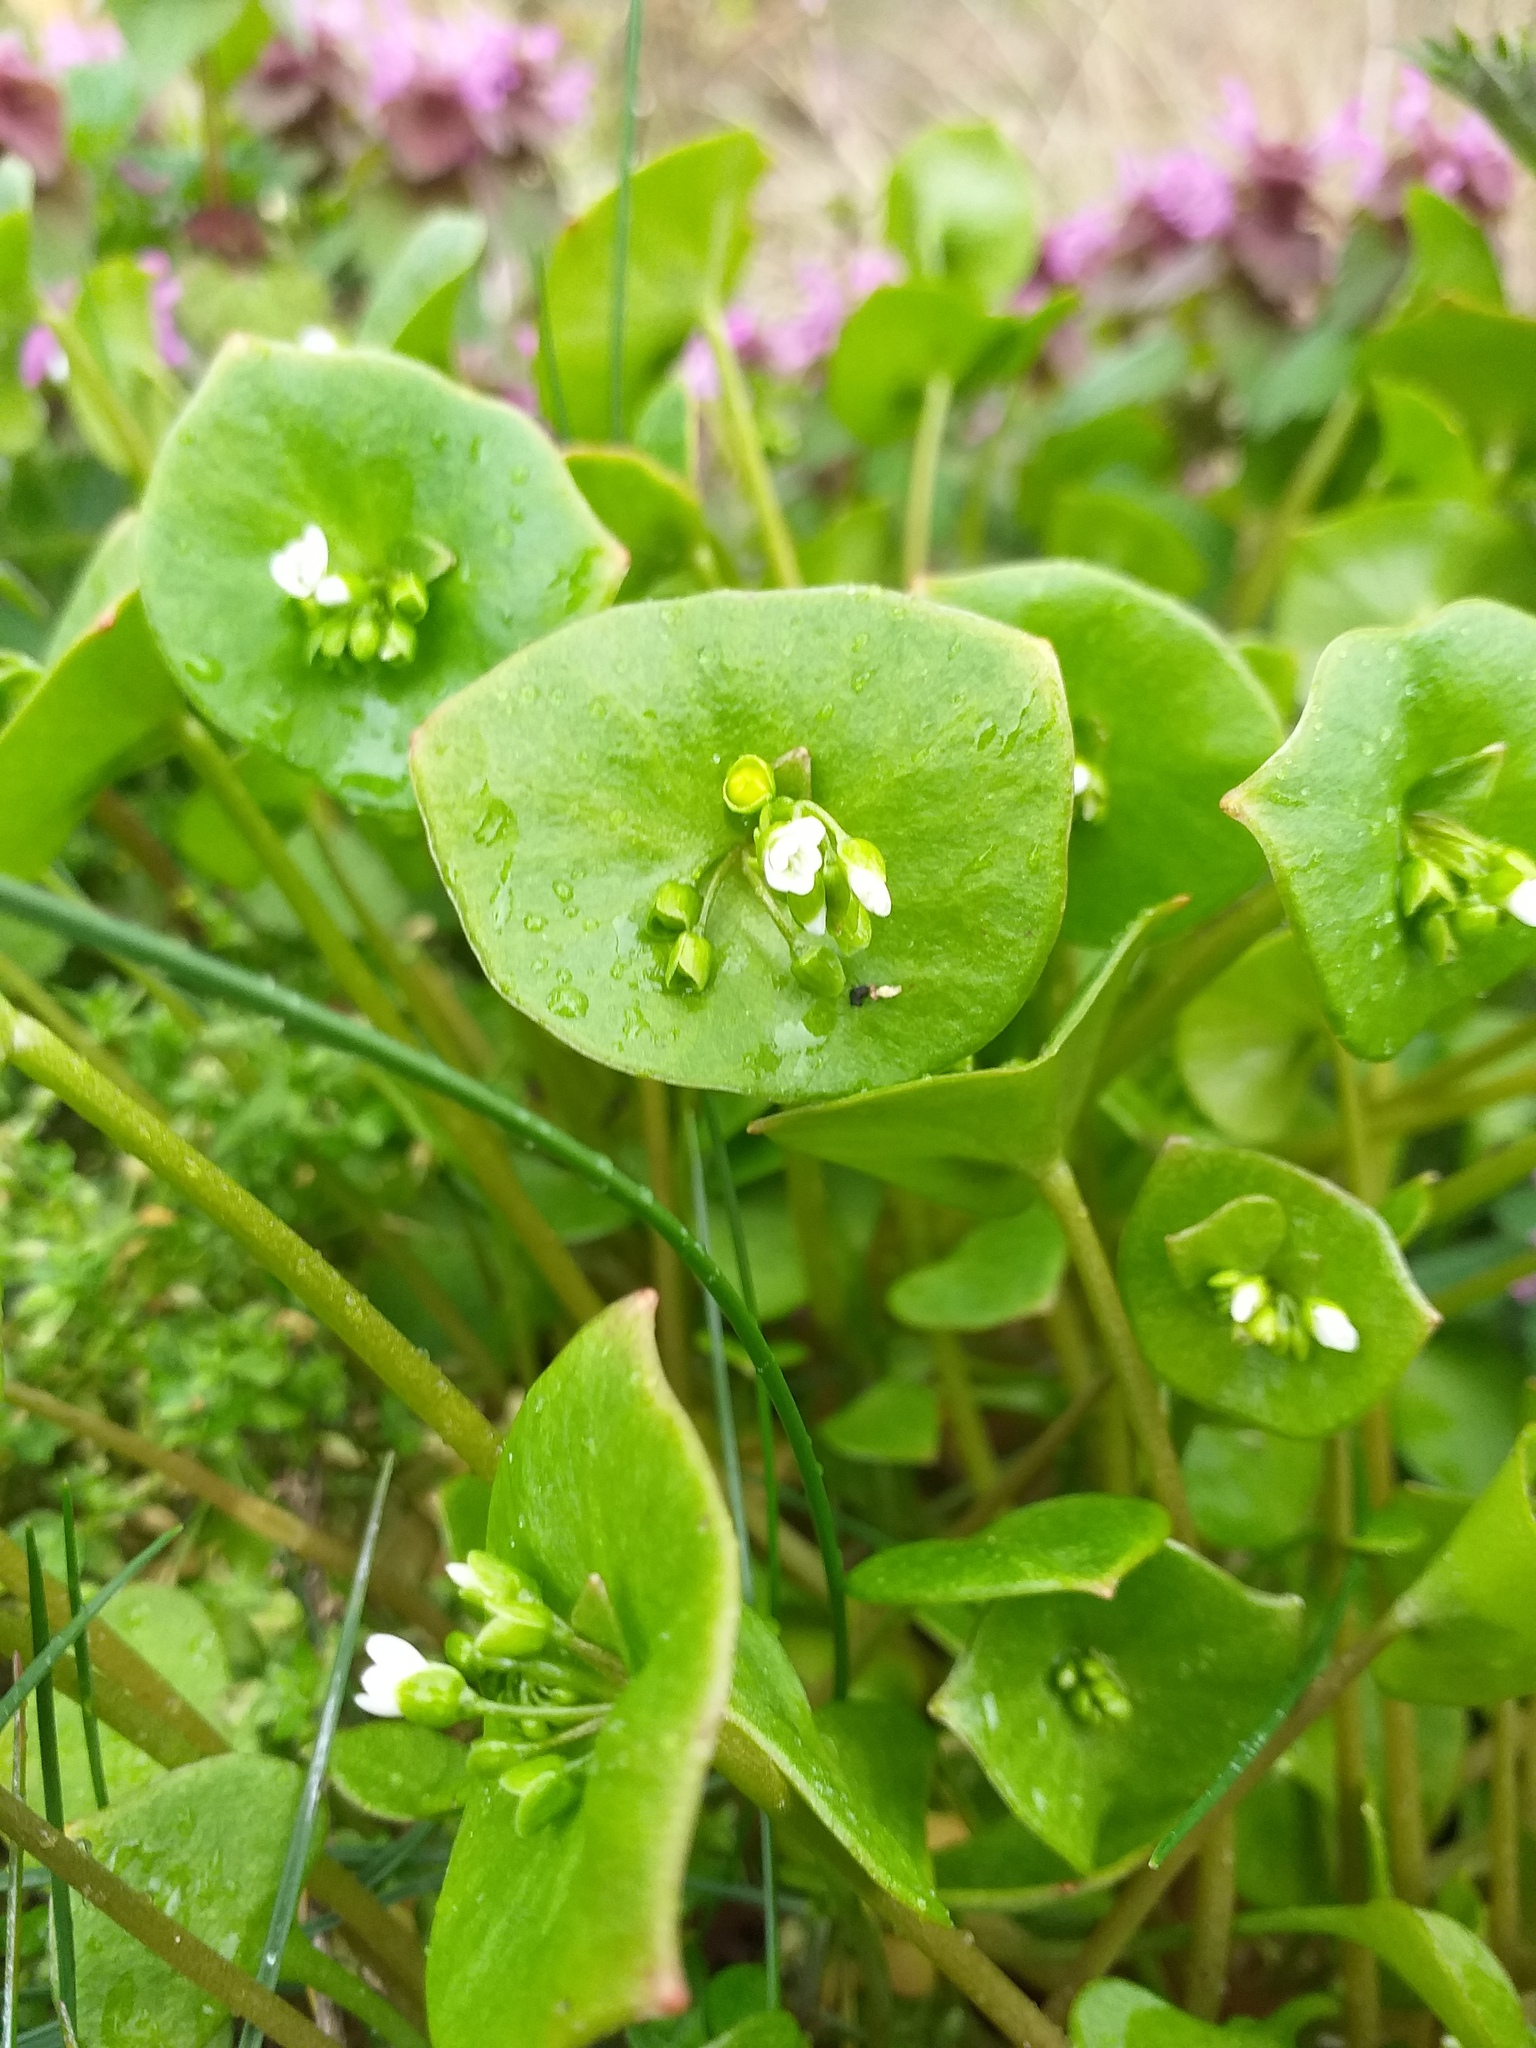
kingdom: Plantae
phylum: Tracheophyta
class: Magnoliopsida
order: Caryophyllales
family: Montiaceae
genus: Claytonia
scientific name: Claytonia perfoliata
